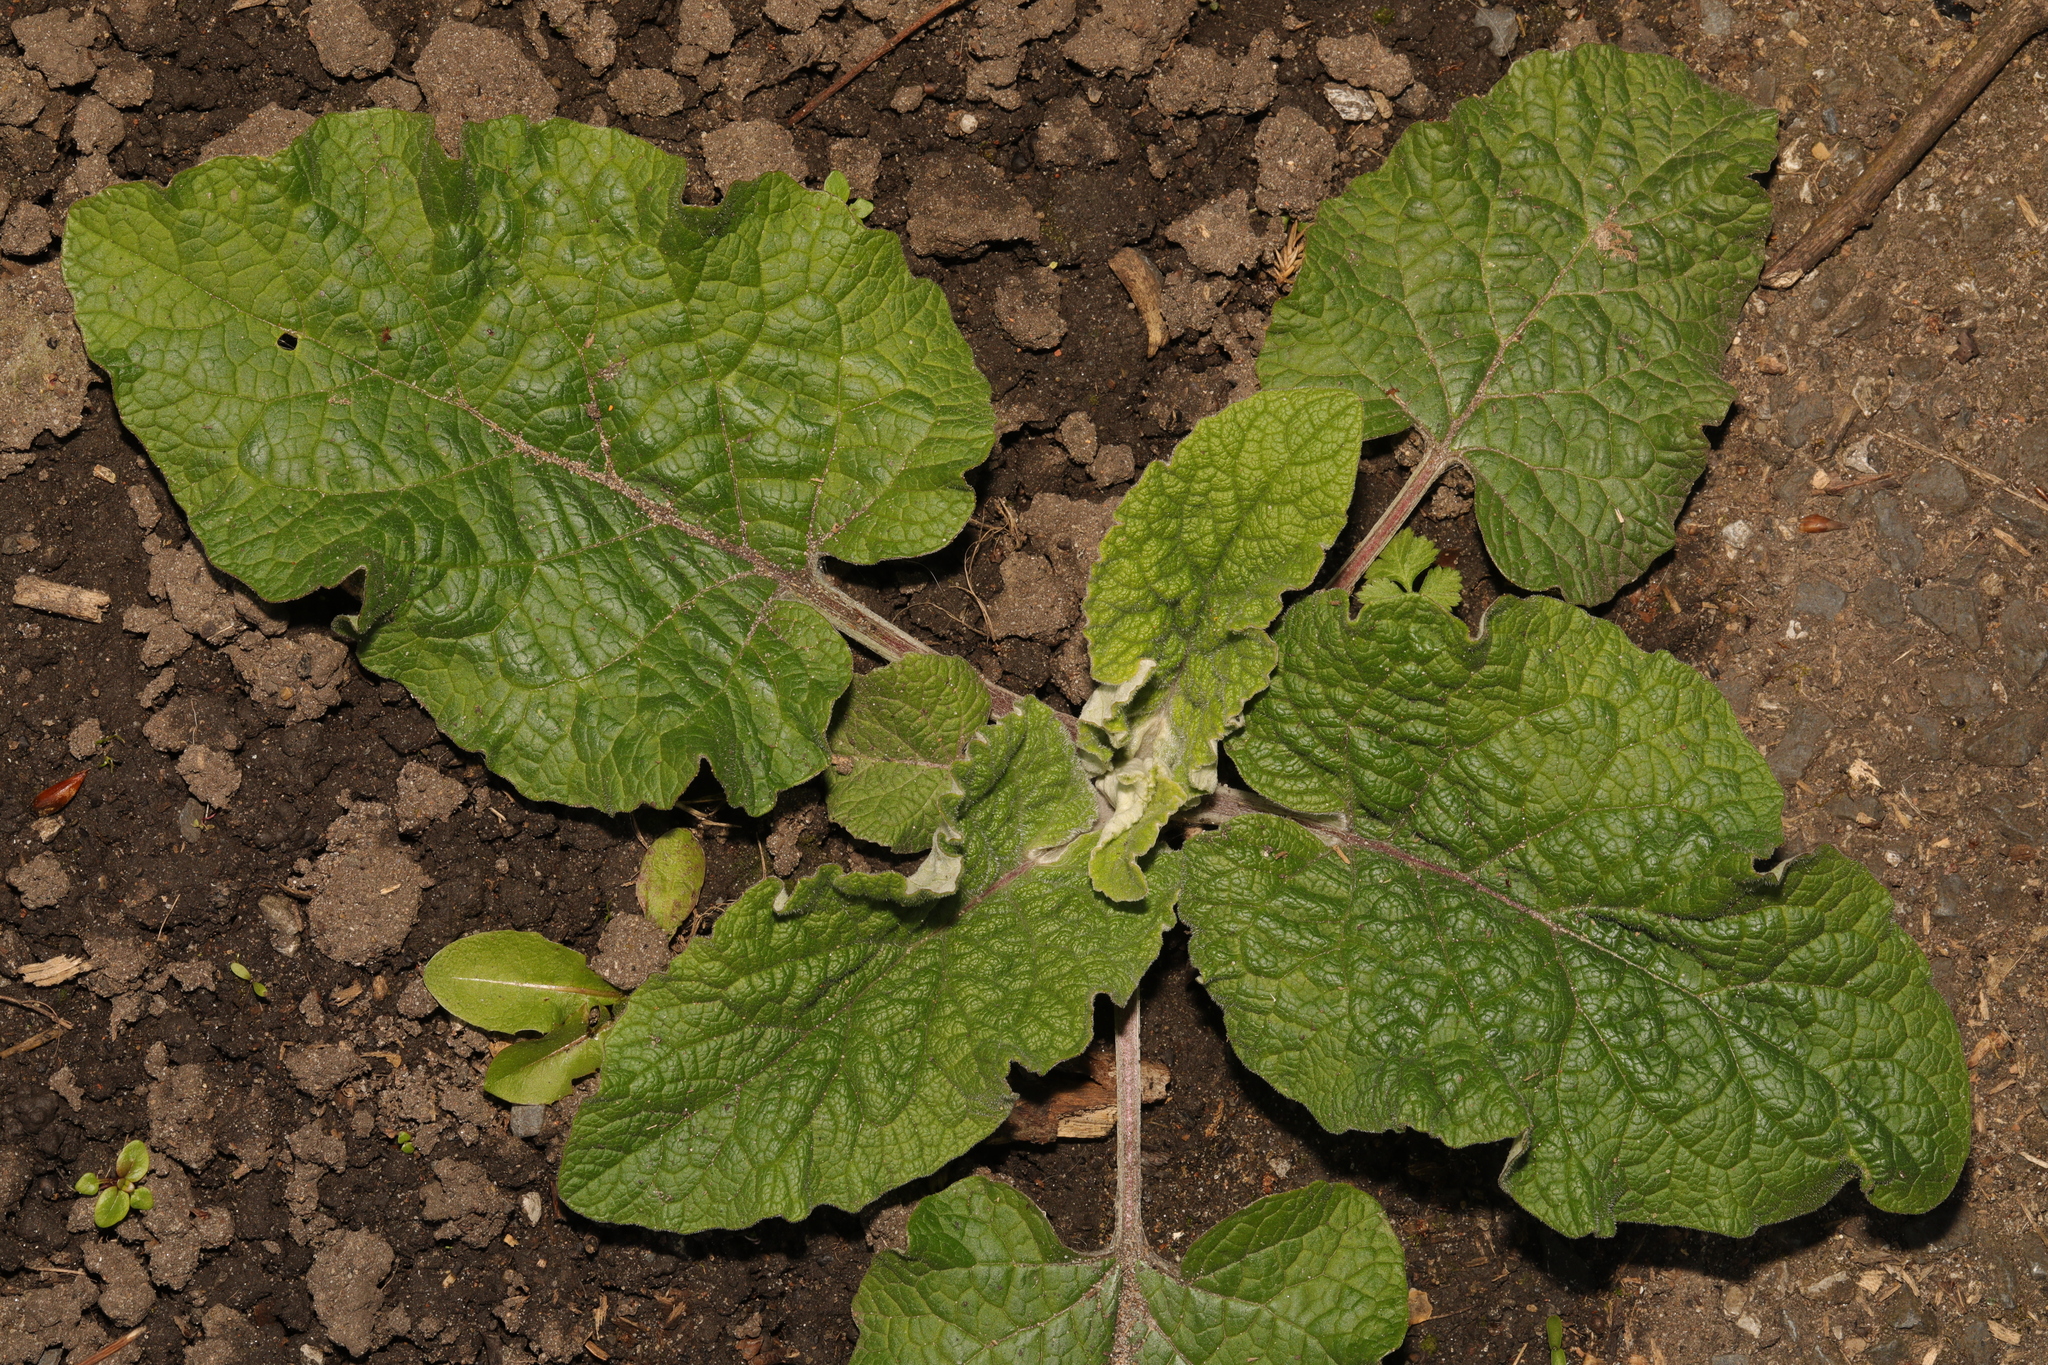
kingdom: Plantae
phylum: Tracheophyta
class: Magnoliopsida
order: Asterales
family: Asteraceae
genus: Arctium
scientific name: Arctium minus
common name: Lesser burdock
